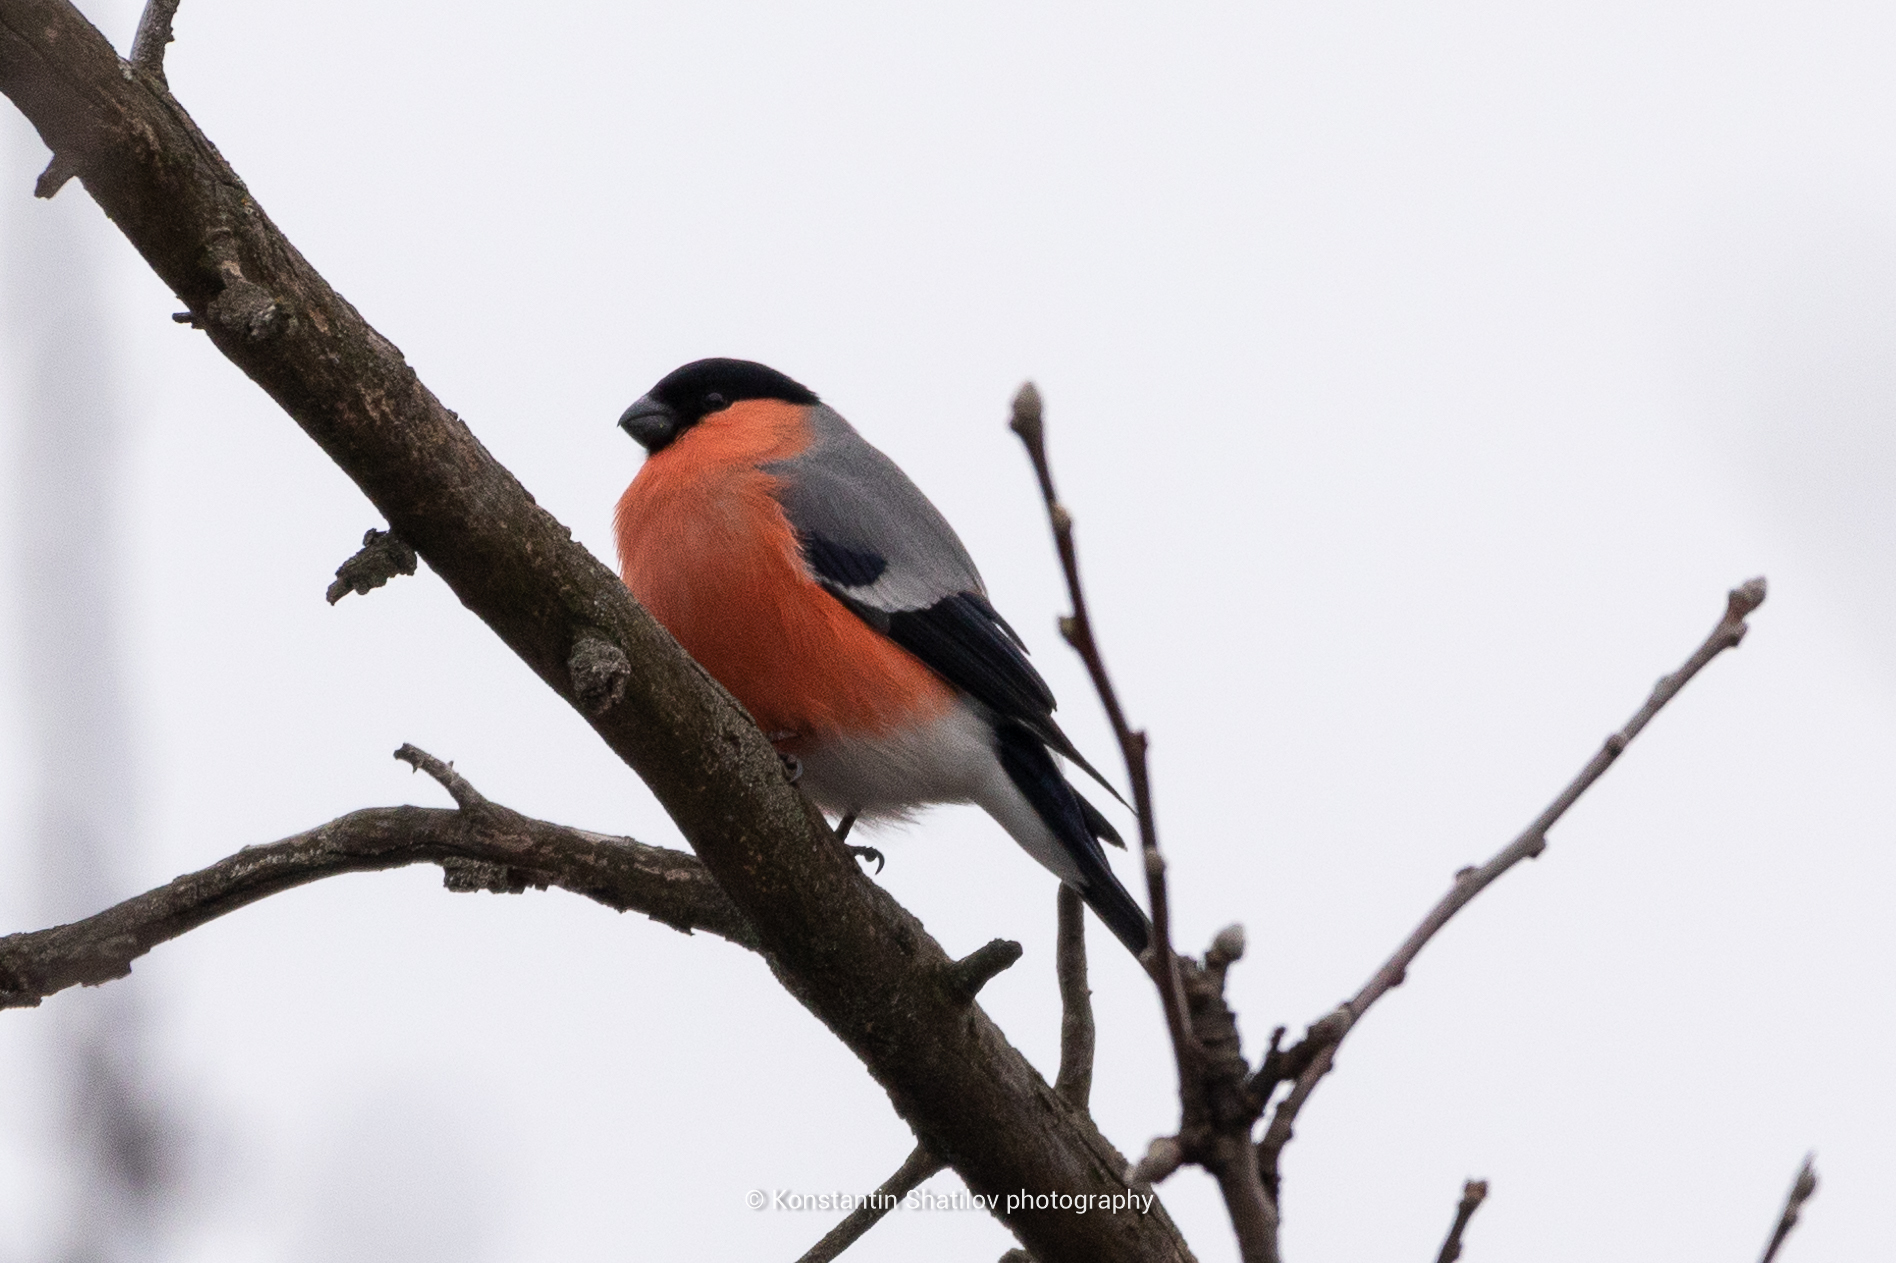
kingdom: Animalia
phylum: Chordata
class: Aves
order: Passeriformes
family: Fringillidae
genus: Pyrrhula
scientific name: Pyrrhula pyrrhula
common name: Eurasian bullfinch
